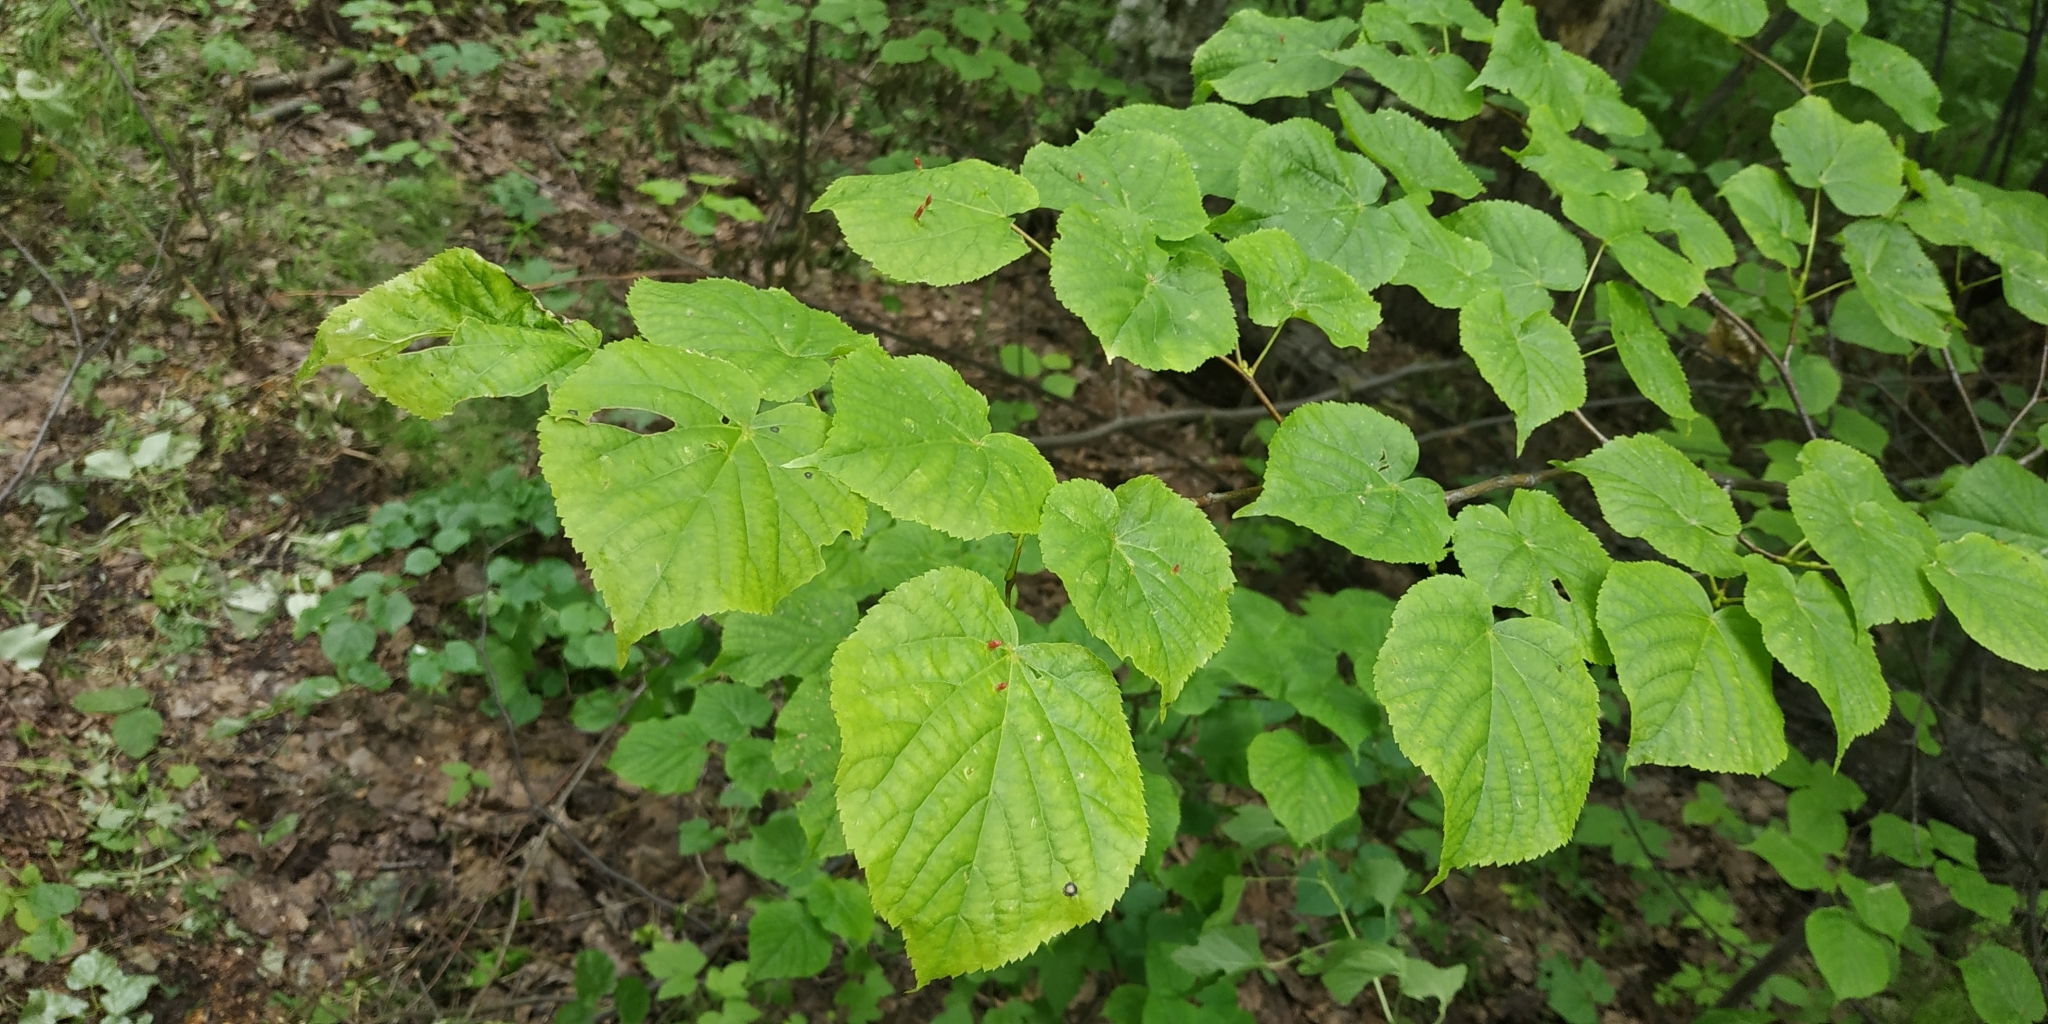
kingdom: Plantae
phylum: Tracheophyta
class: Magnoliopsida
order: Malvales
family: Malvaceae
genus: Tilia
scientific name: Tilia cordata
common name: Small-leaved lime
